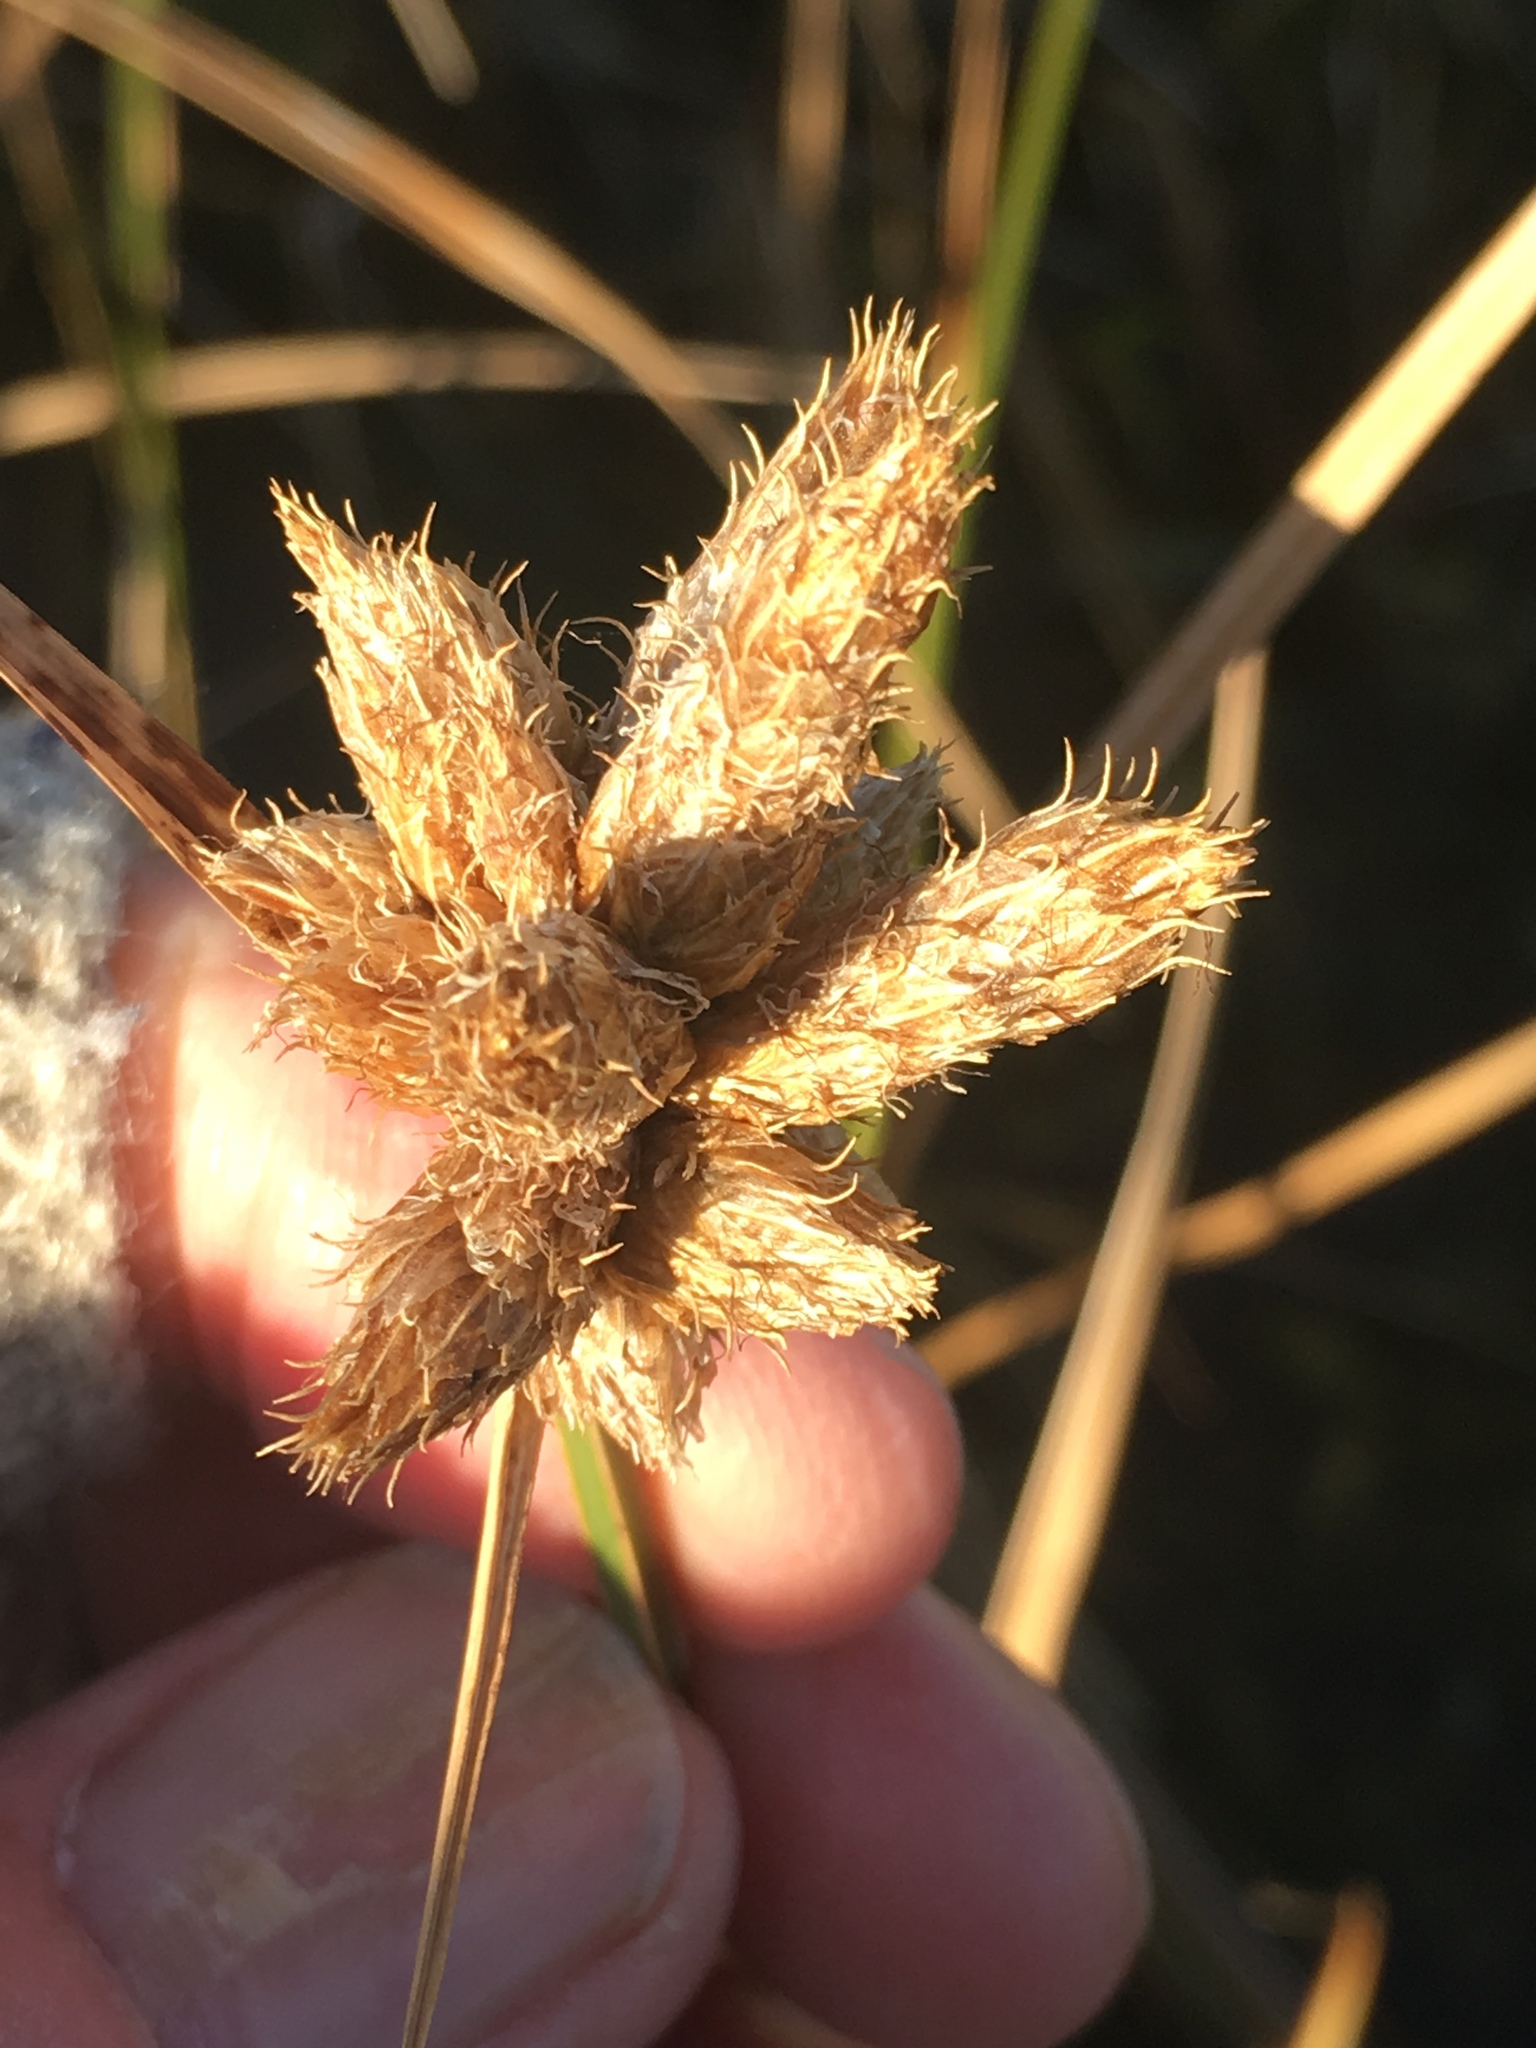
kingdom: Plantae
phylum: Tracheophyta
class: Liliopsida
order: Poales
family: Cyperaceae
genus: Bolboschoenus
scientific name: Bolboschoenus maritimus
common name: Sea club-rush
